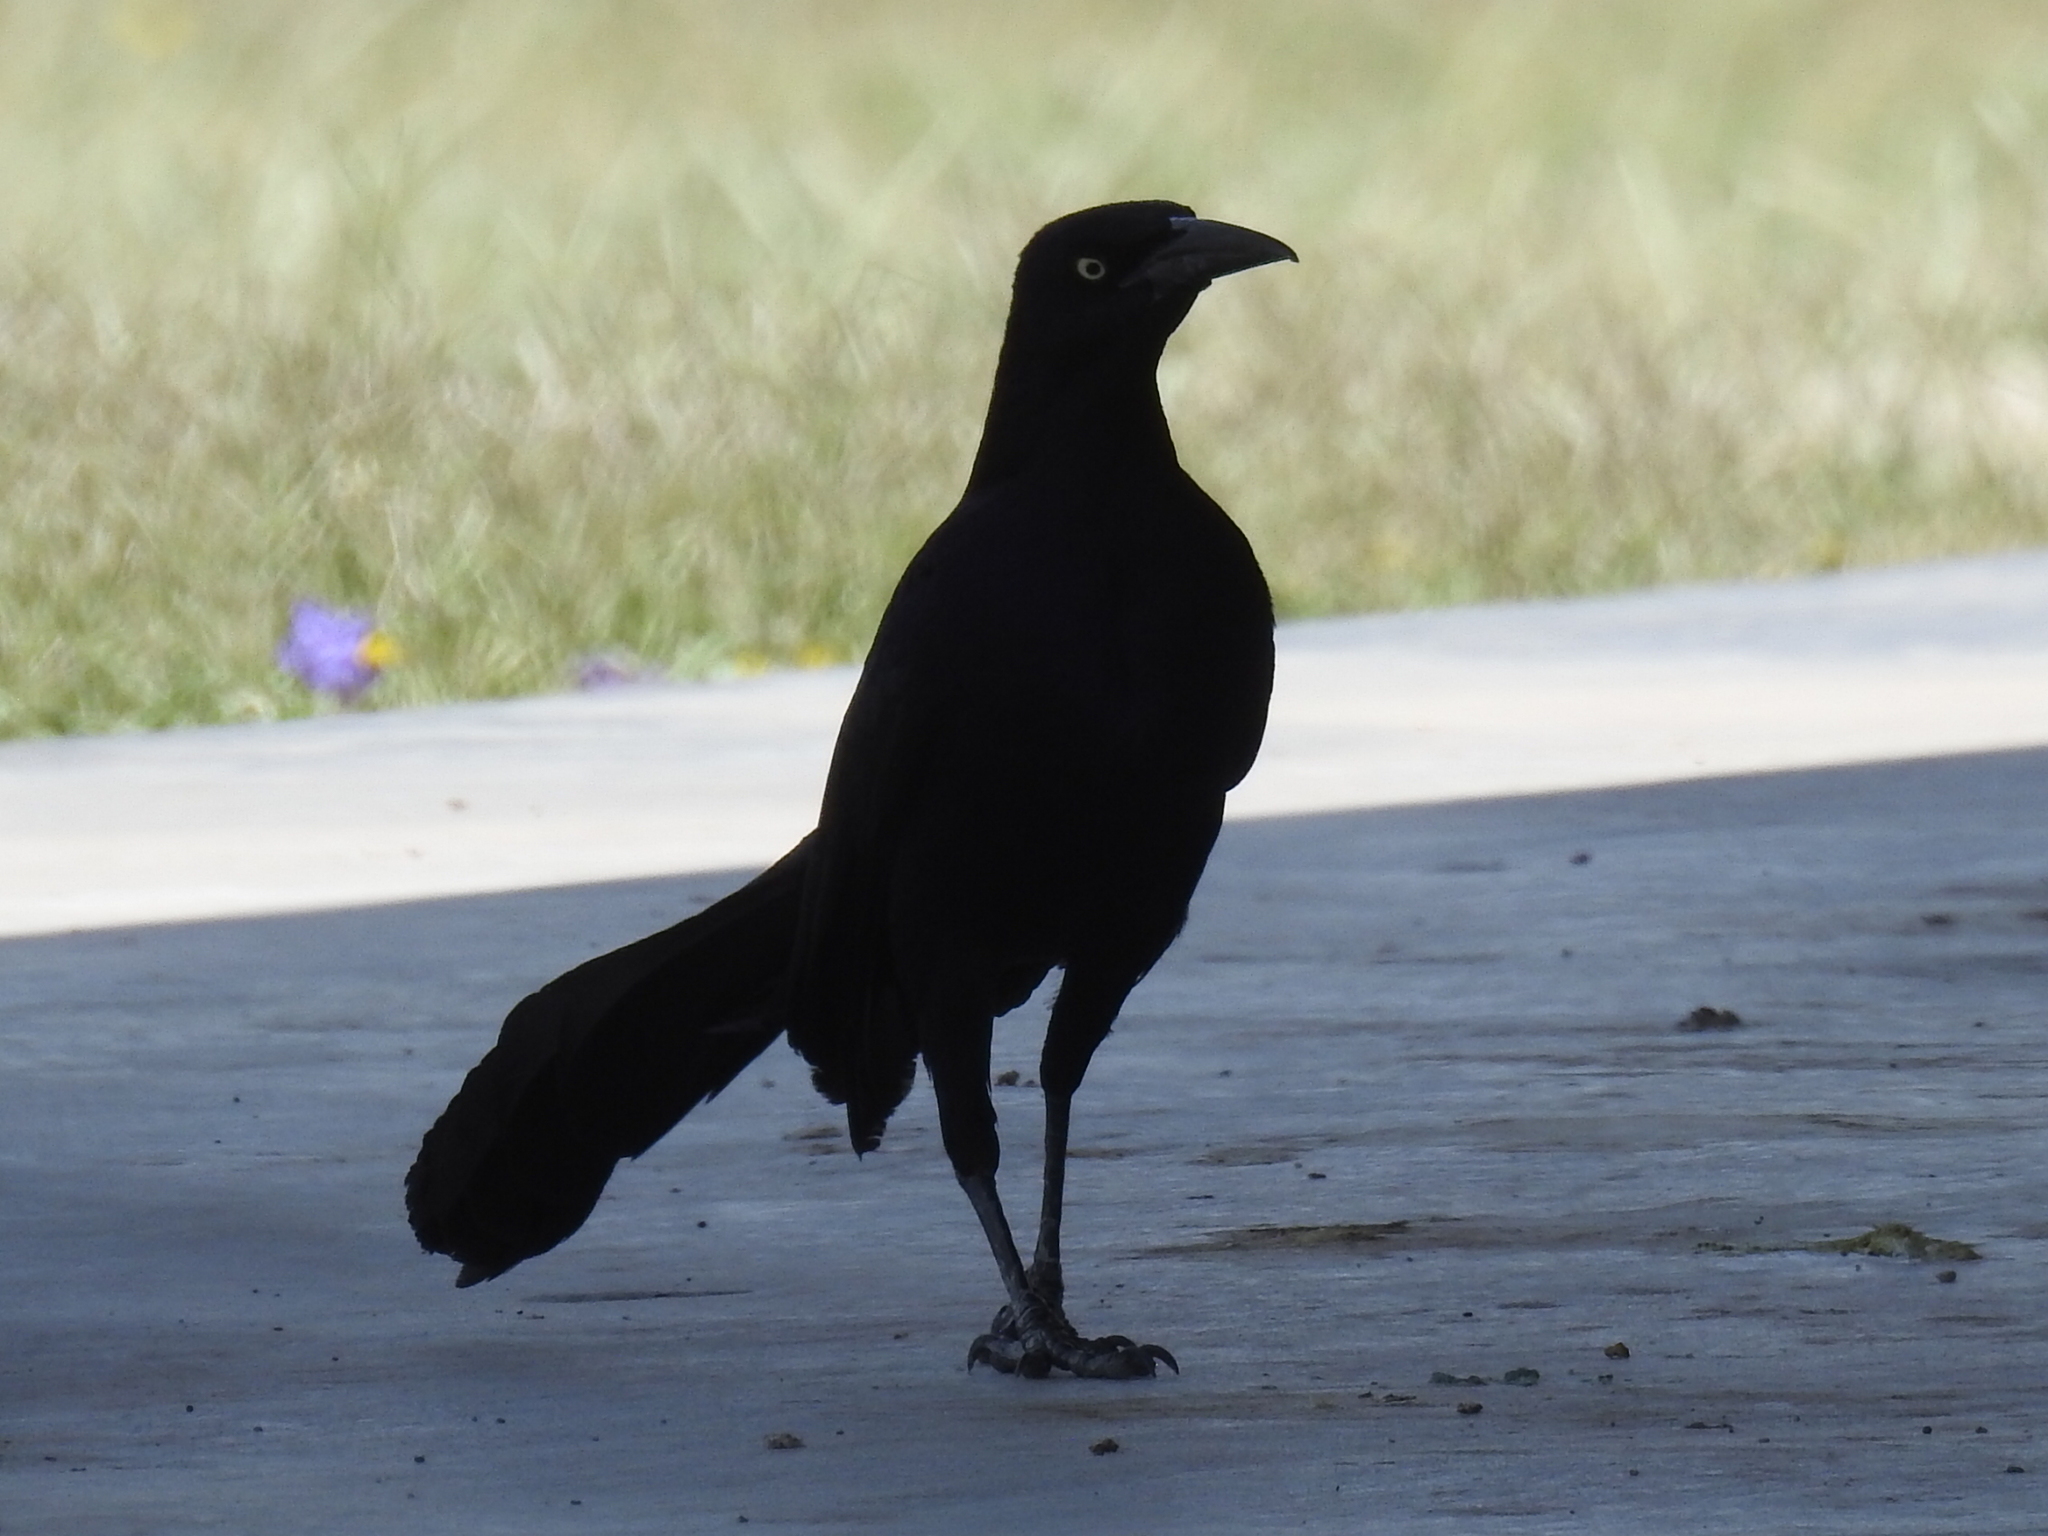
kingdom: Animalia
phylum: Chordata
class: Aves
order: Passeriformes
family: Icteridae
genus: Quiscalus
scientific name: Quiscalus mexicanus
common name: Great-tailed grackle
